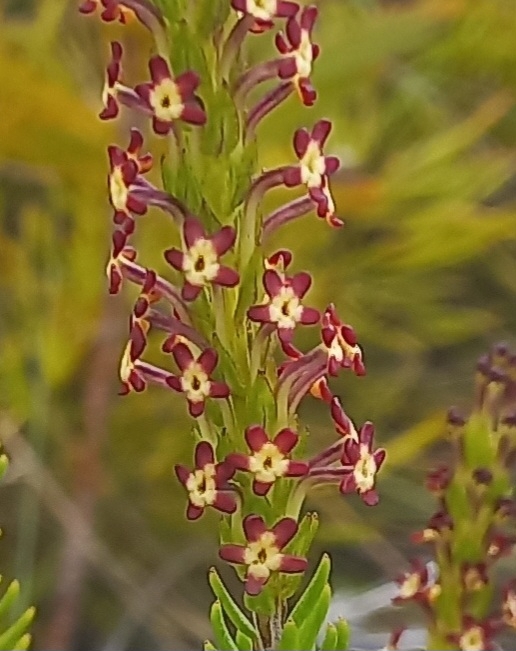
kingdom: Plantae
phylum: Tracheophyta
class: Magnoliopsida
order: Lamiales
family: Scrophulariaceae
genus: Microdon
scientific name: Microdon dubius
